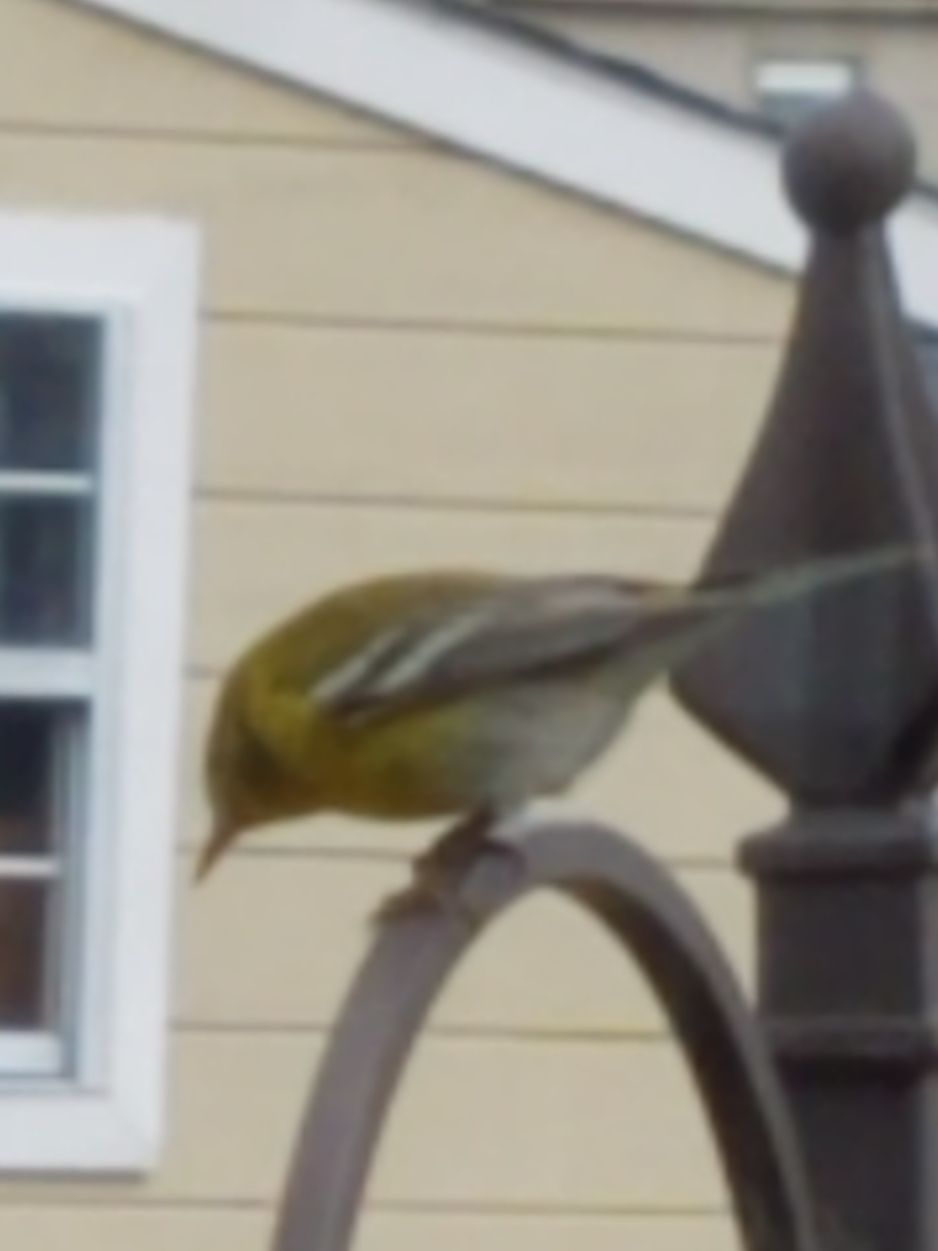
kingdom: Animalia
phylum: Chordata
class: Aves
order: Passeriformes
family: Parulidae
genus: Setophaga
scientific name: Setophaga pinus
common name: Pine warbler
